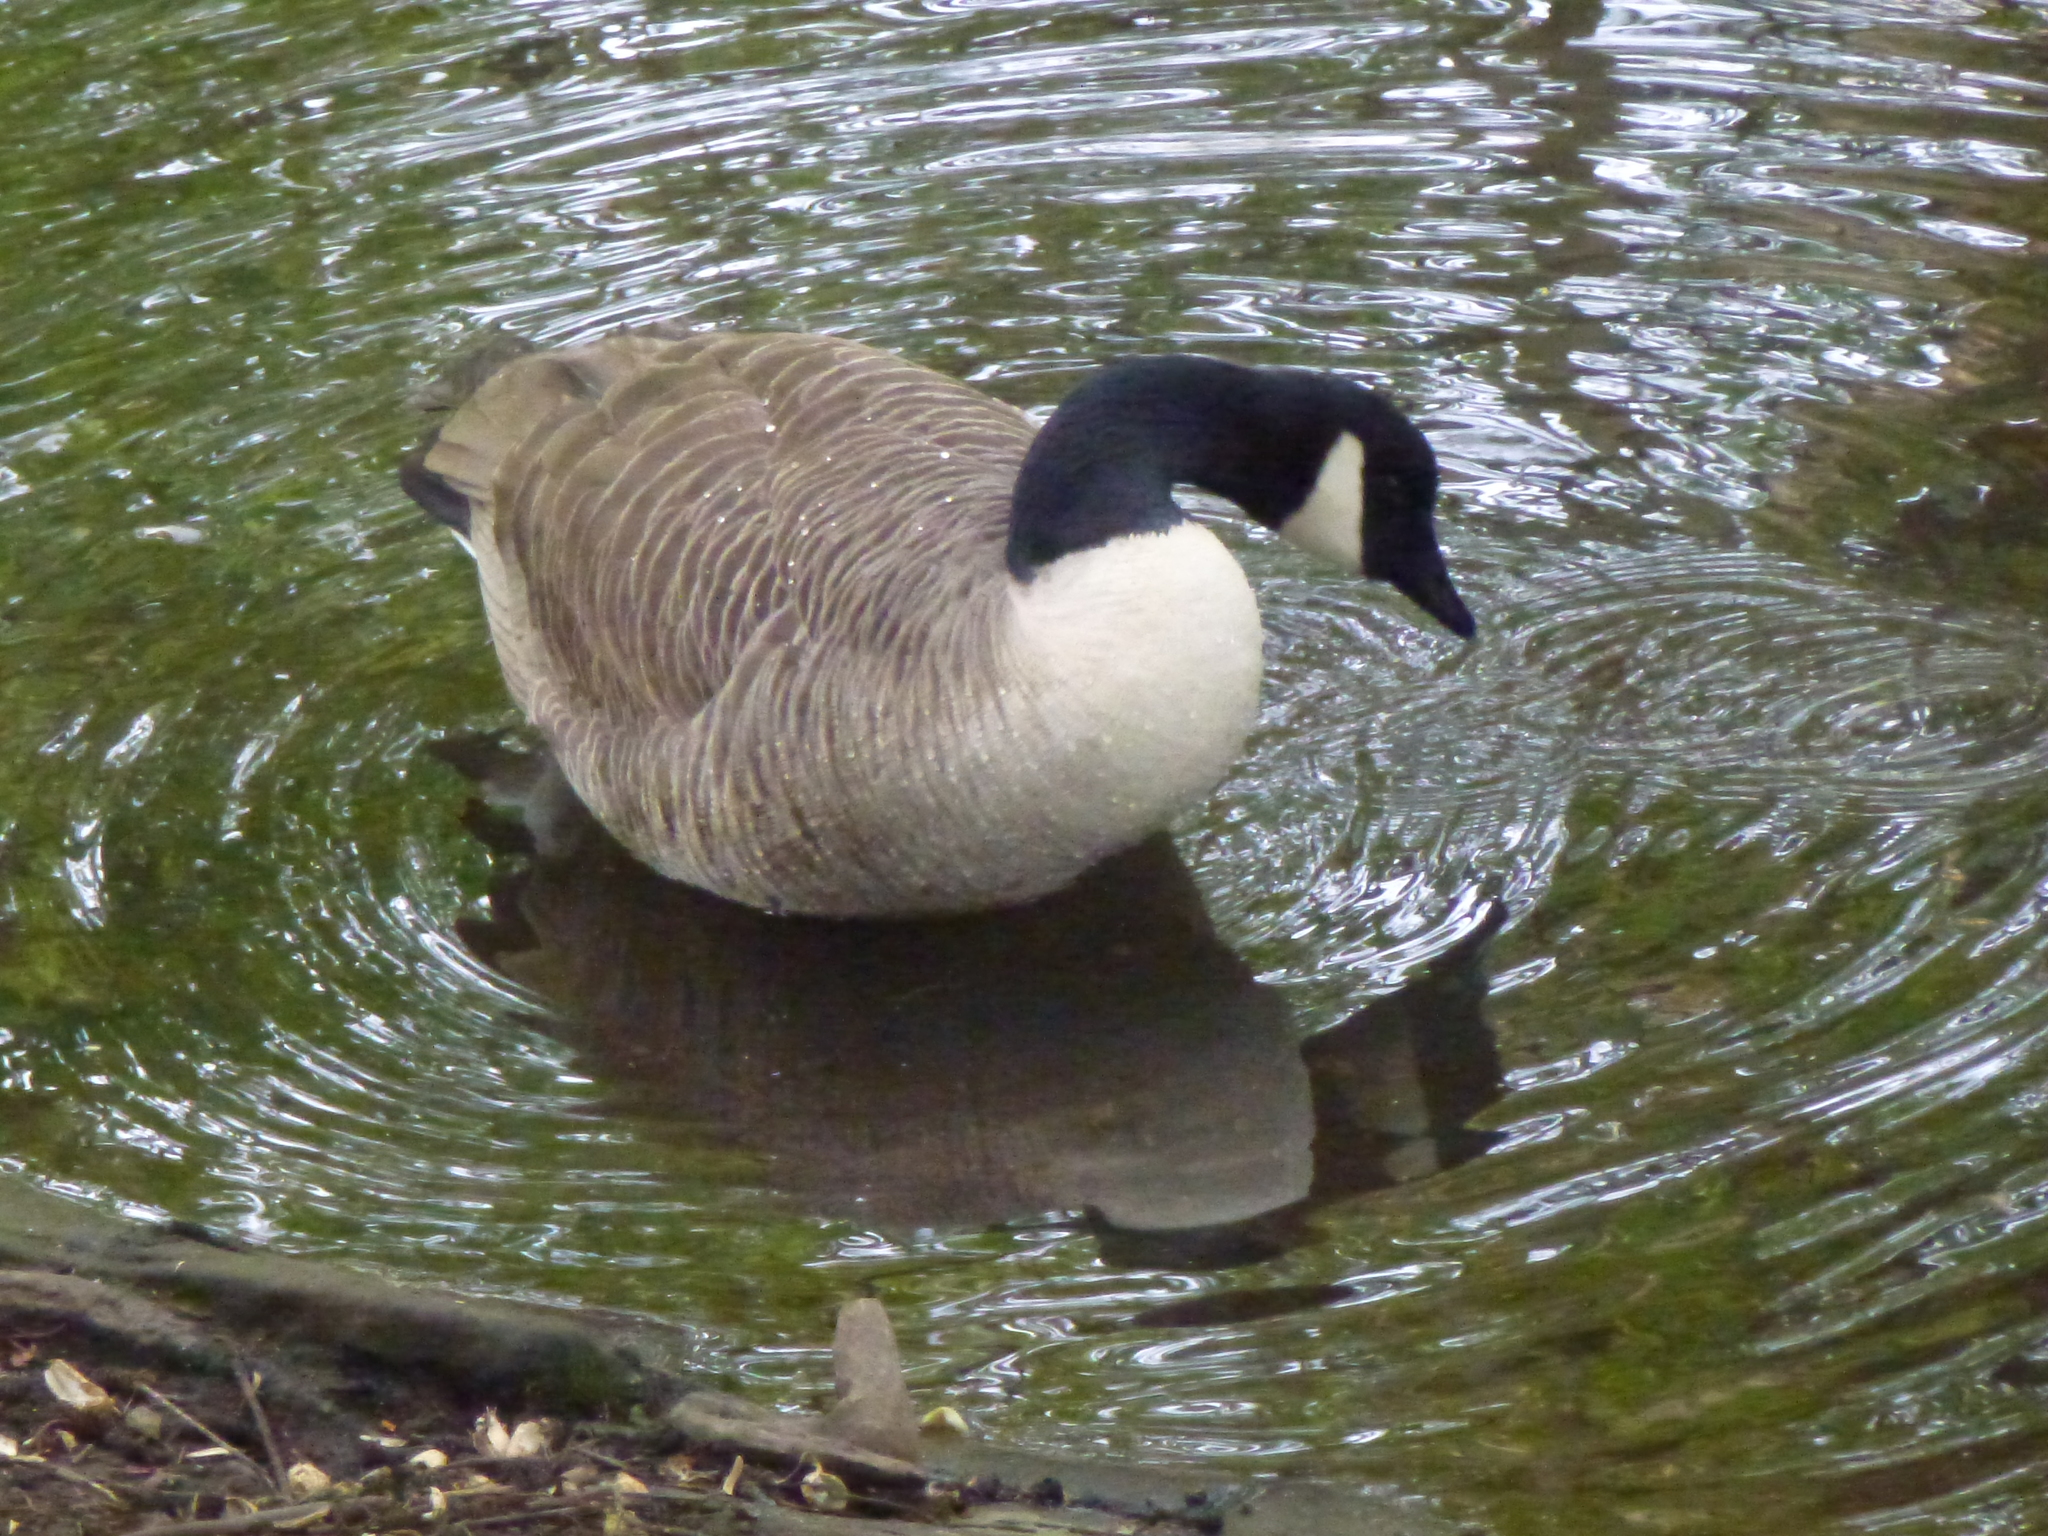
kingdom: Animalia
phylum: Chordata
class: Aves
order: Anseriformes
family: Anatidae
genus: Branta
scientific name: Branta canadensis
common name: Canada goose
